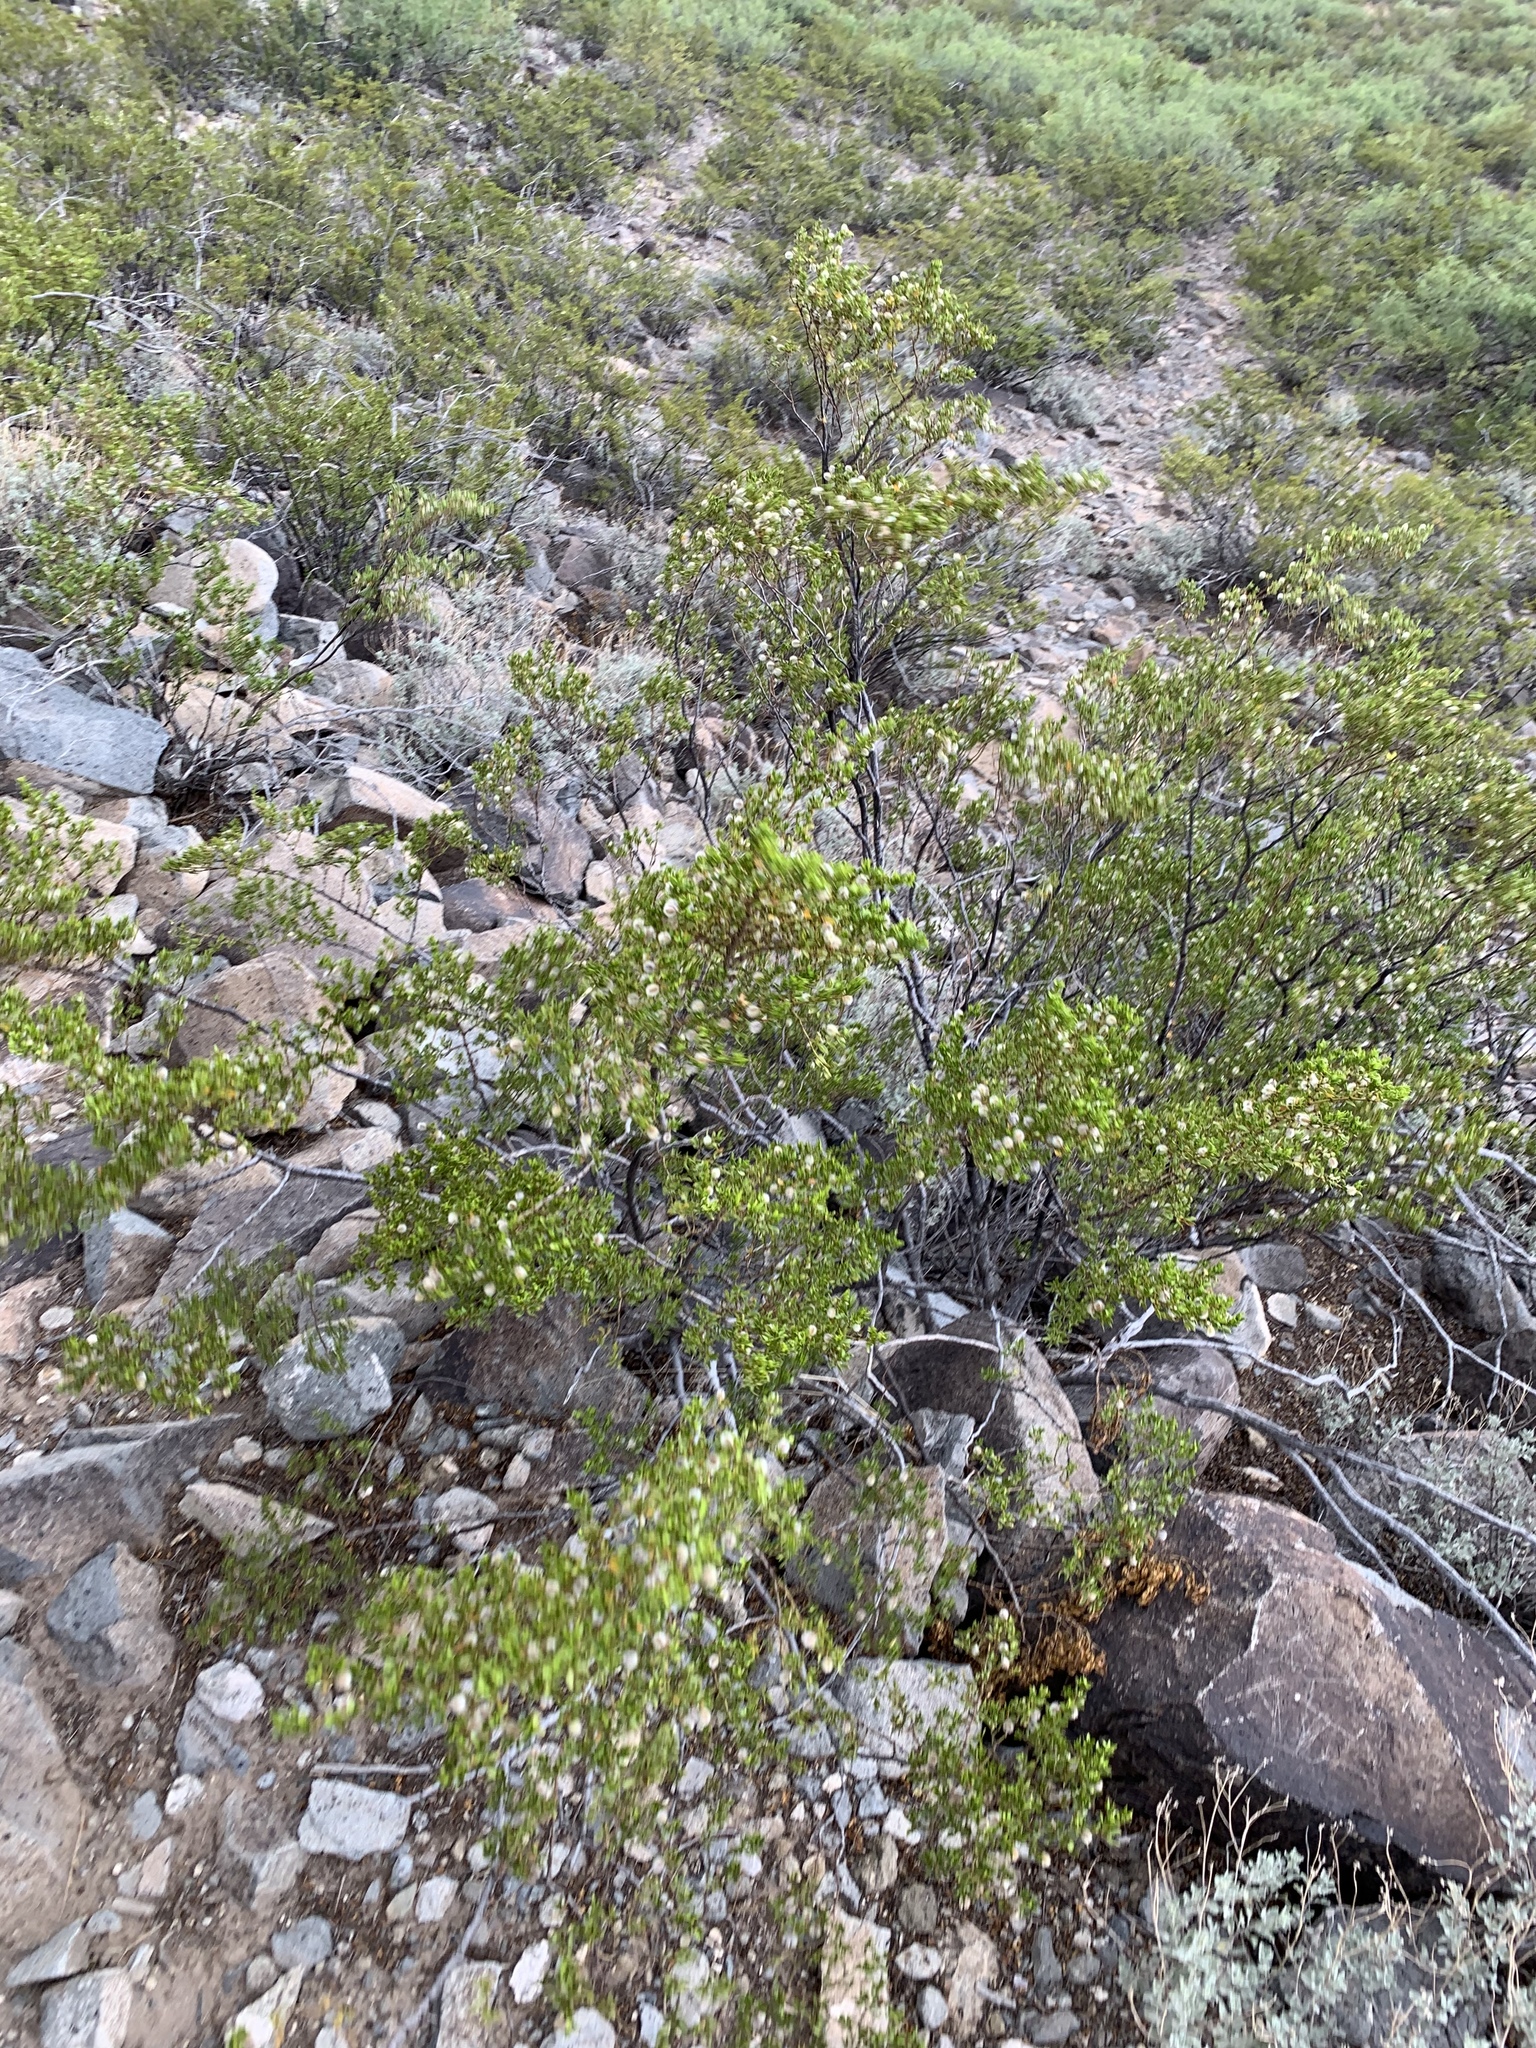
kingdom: Plantae
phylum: Tracheophyta
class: Magnoliopsida
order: Zygophyllales
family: Zygophyllaceae
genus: Larrea
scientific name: Larrea tridentata
